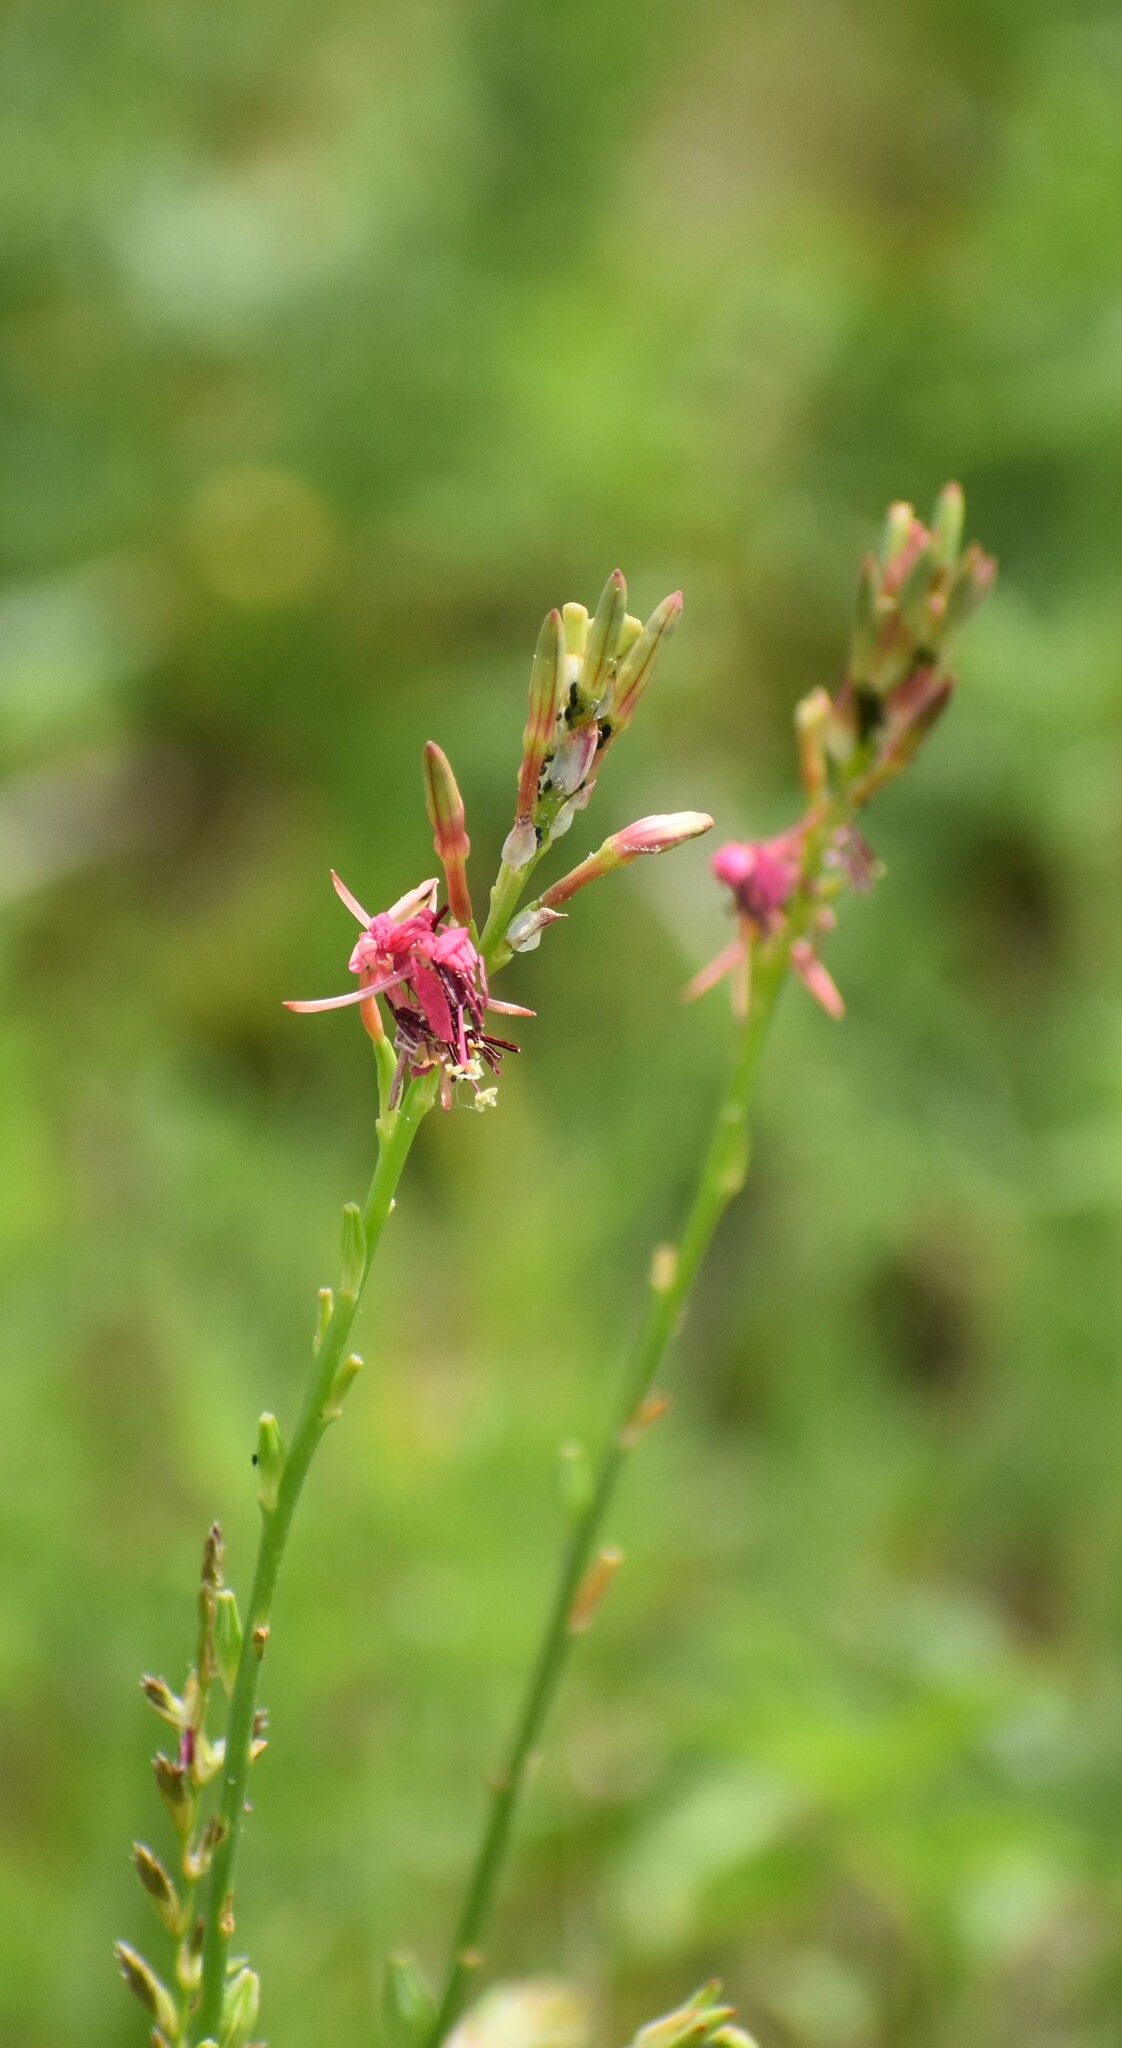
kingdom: Plantae
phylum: Tracheophyta
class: Magnoliopsida
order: Myrtales
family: Onagraceae
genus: Oenothera
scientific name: Oenothera suffulta
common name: Kisses
